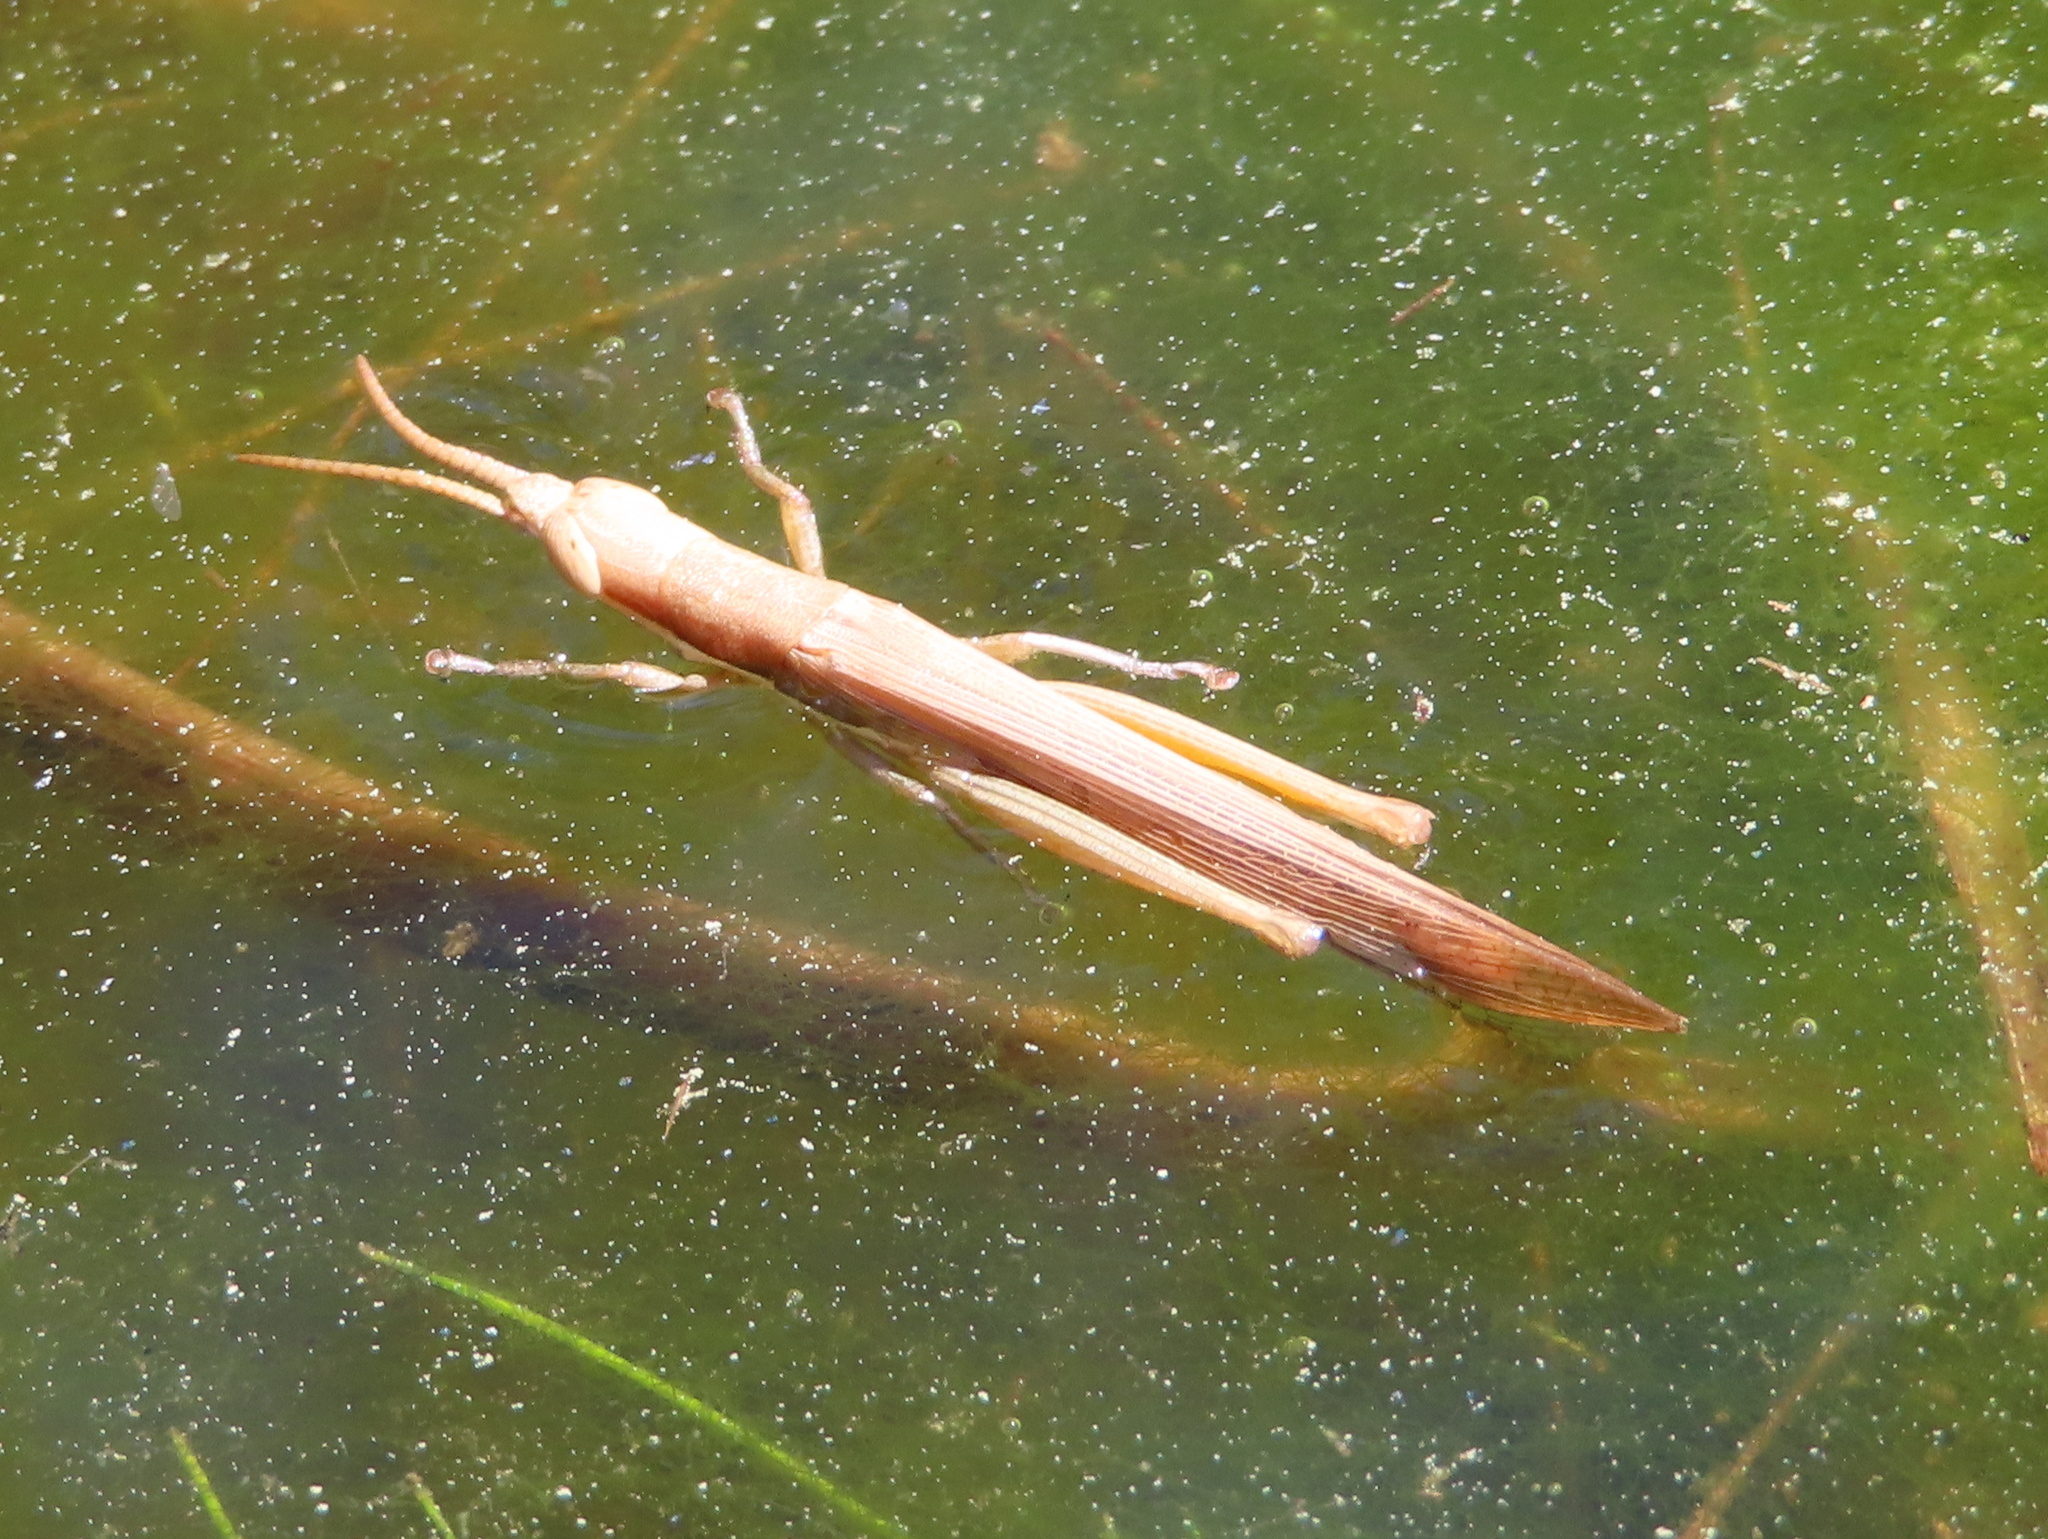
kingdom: Animalia
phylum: Arthropoda
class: Insecta
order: Orthoptera
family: Acrididae
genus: Leptysma
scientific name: Leptysma marginicollis
